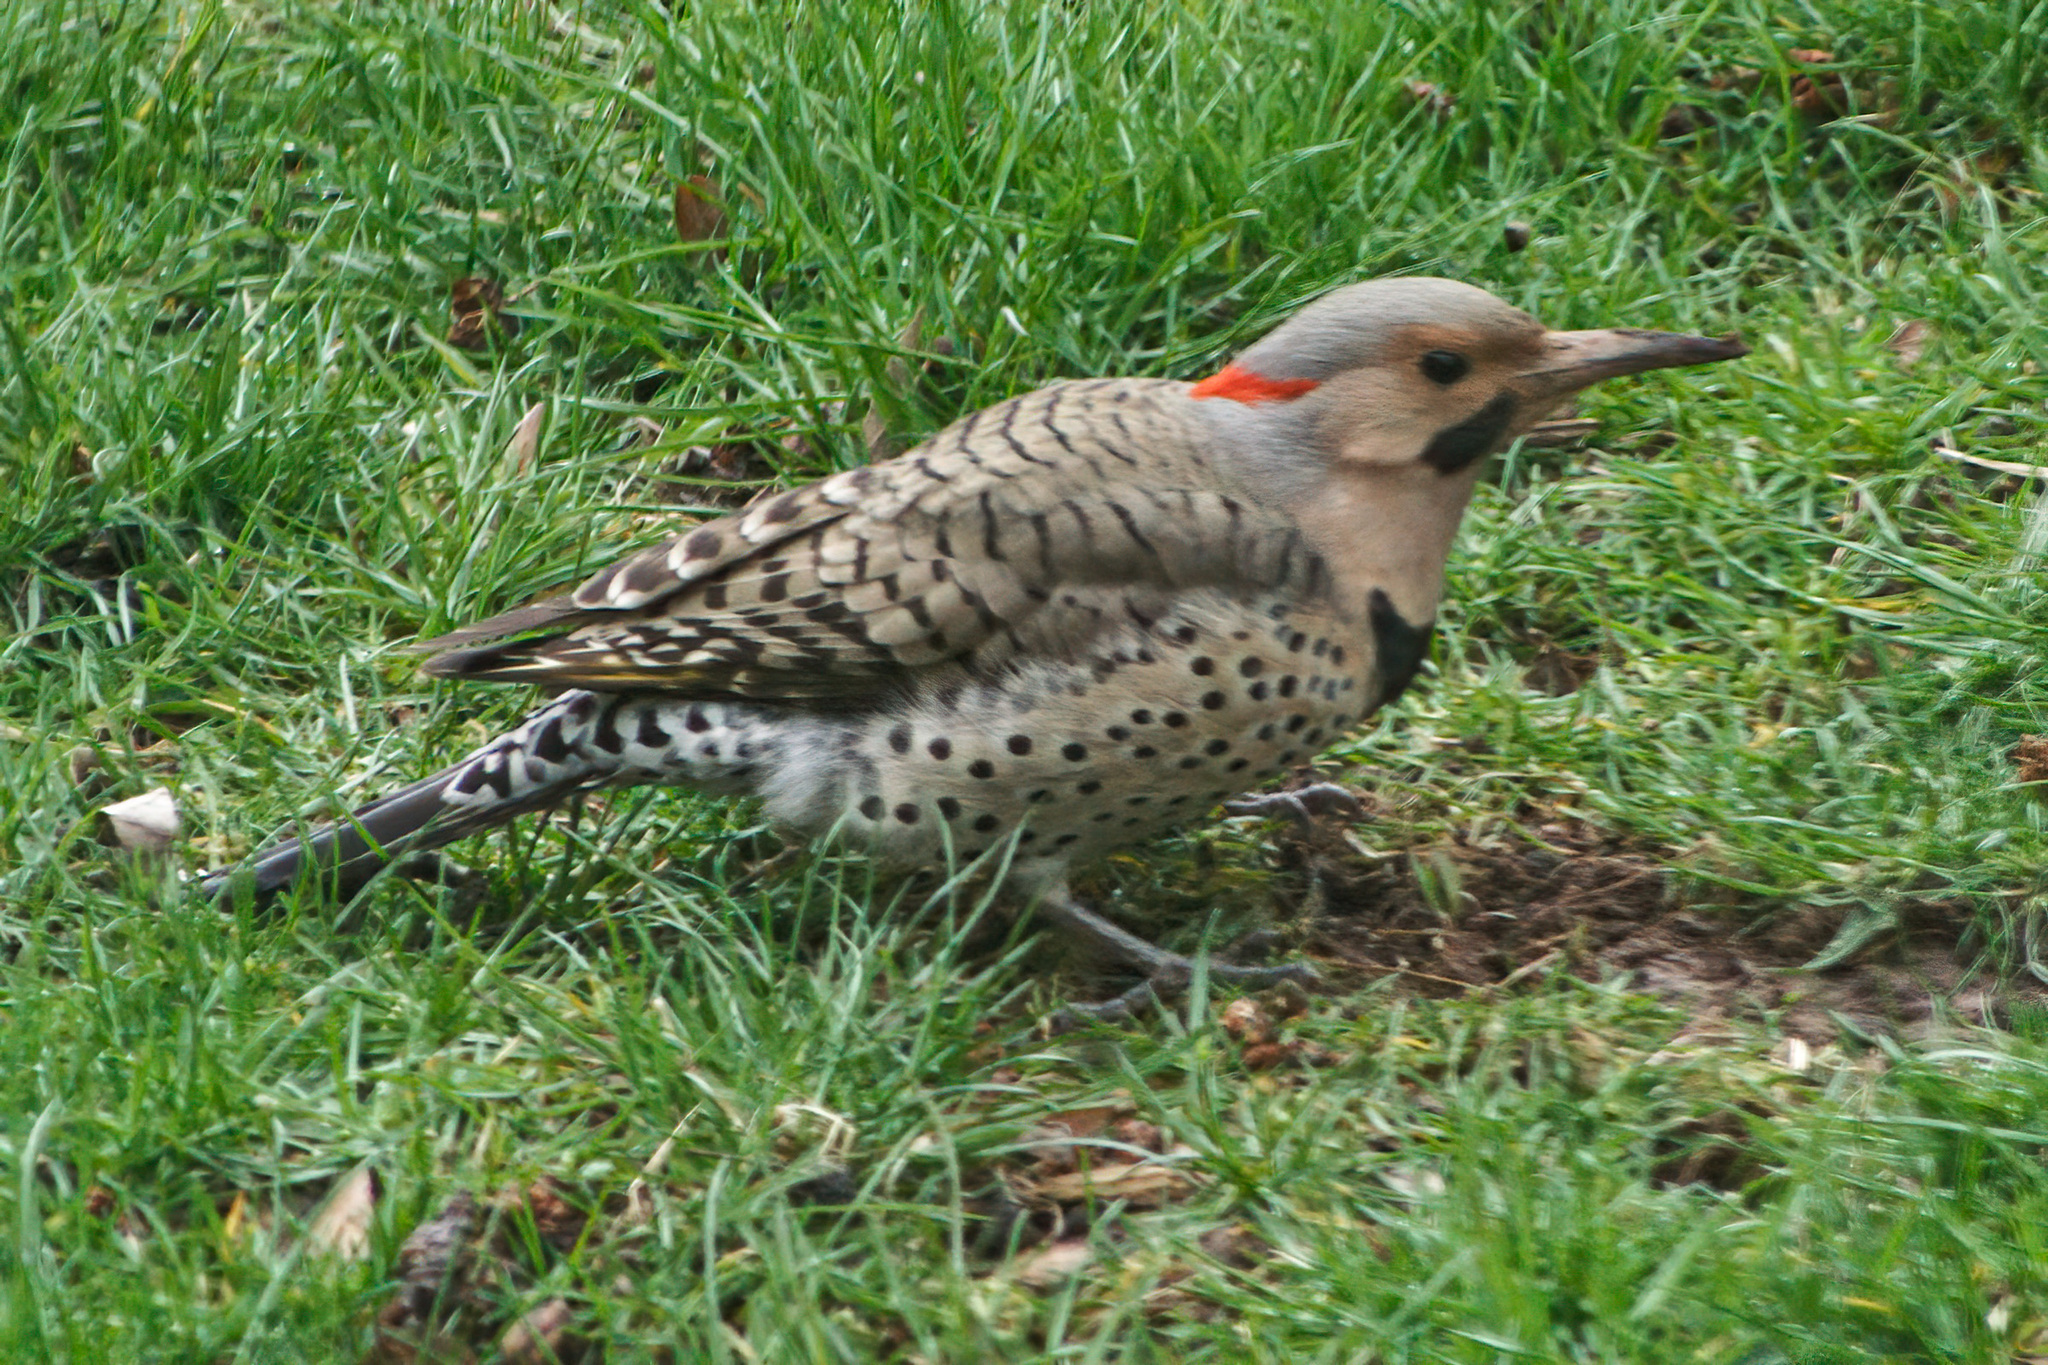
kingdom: Animalia
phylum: Chordata
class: Aves
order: Piciformes
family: Picidae
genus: Colaptes
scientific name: Colaptes auratus
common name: Northern flicker
